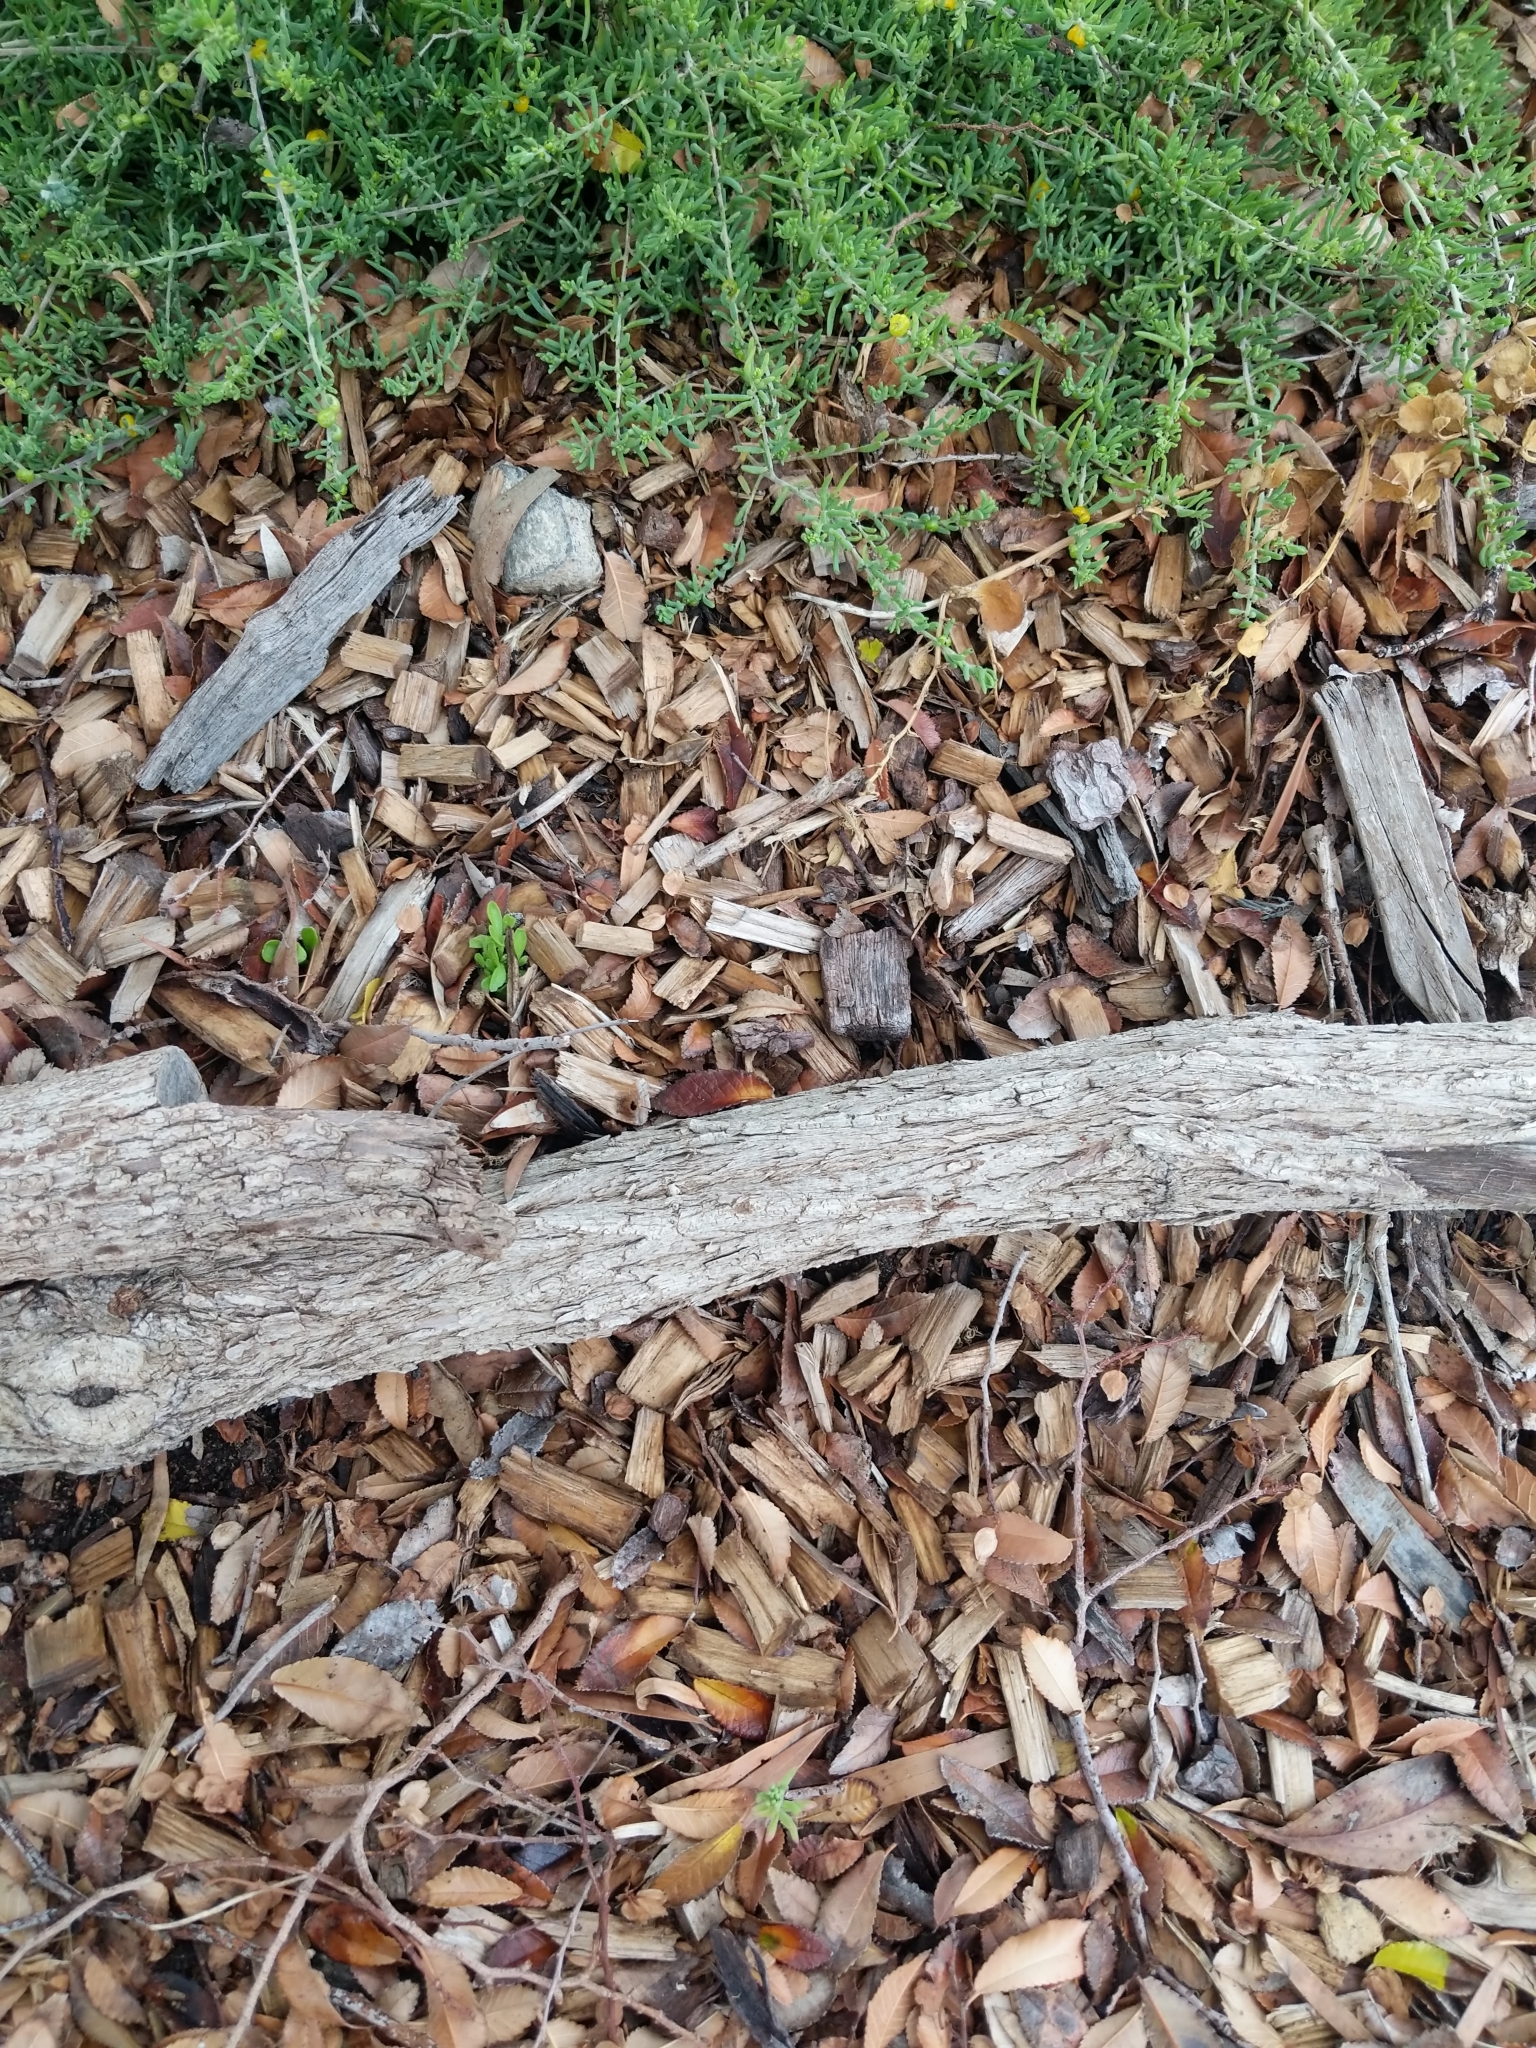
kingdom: Plantae
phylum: Tracheophyta
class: Magnoliopsida
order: Caryophyllales
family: Amaranthaceae
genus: Enchylaena
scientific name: Enchylaena tomentosa
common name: Ruby saltbush
